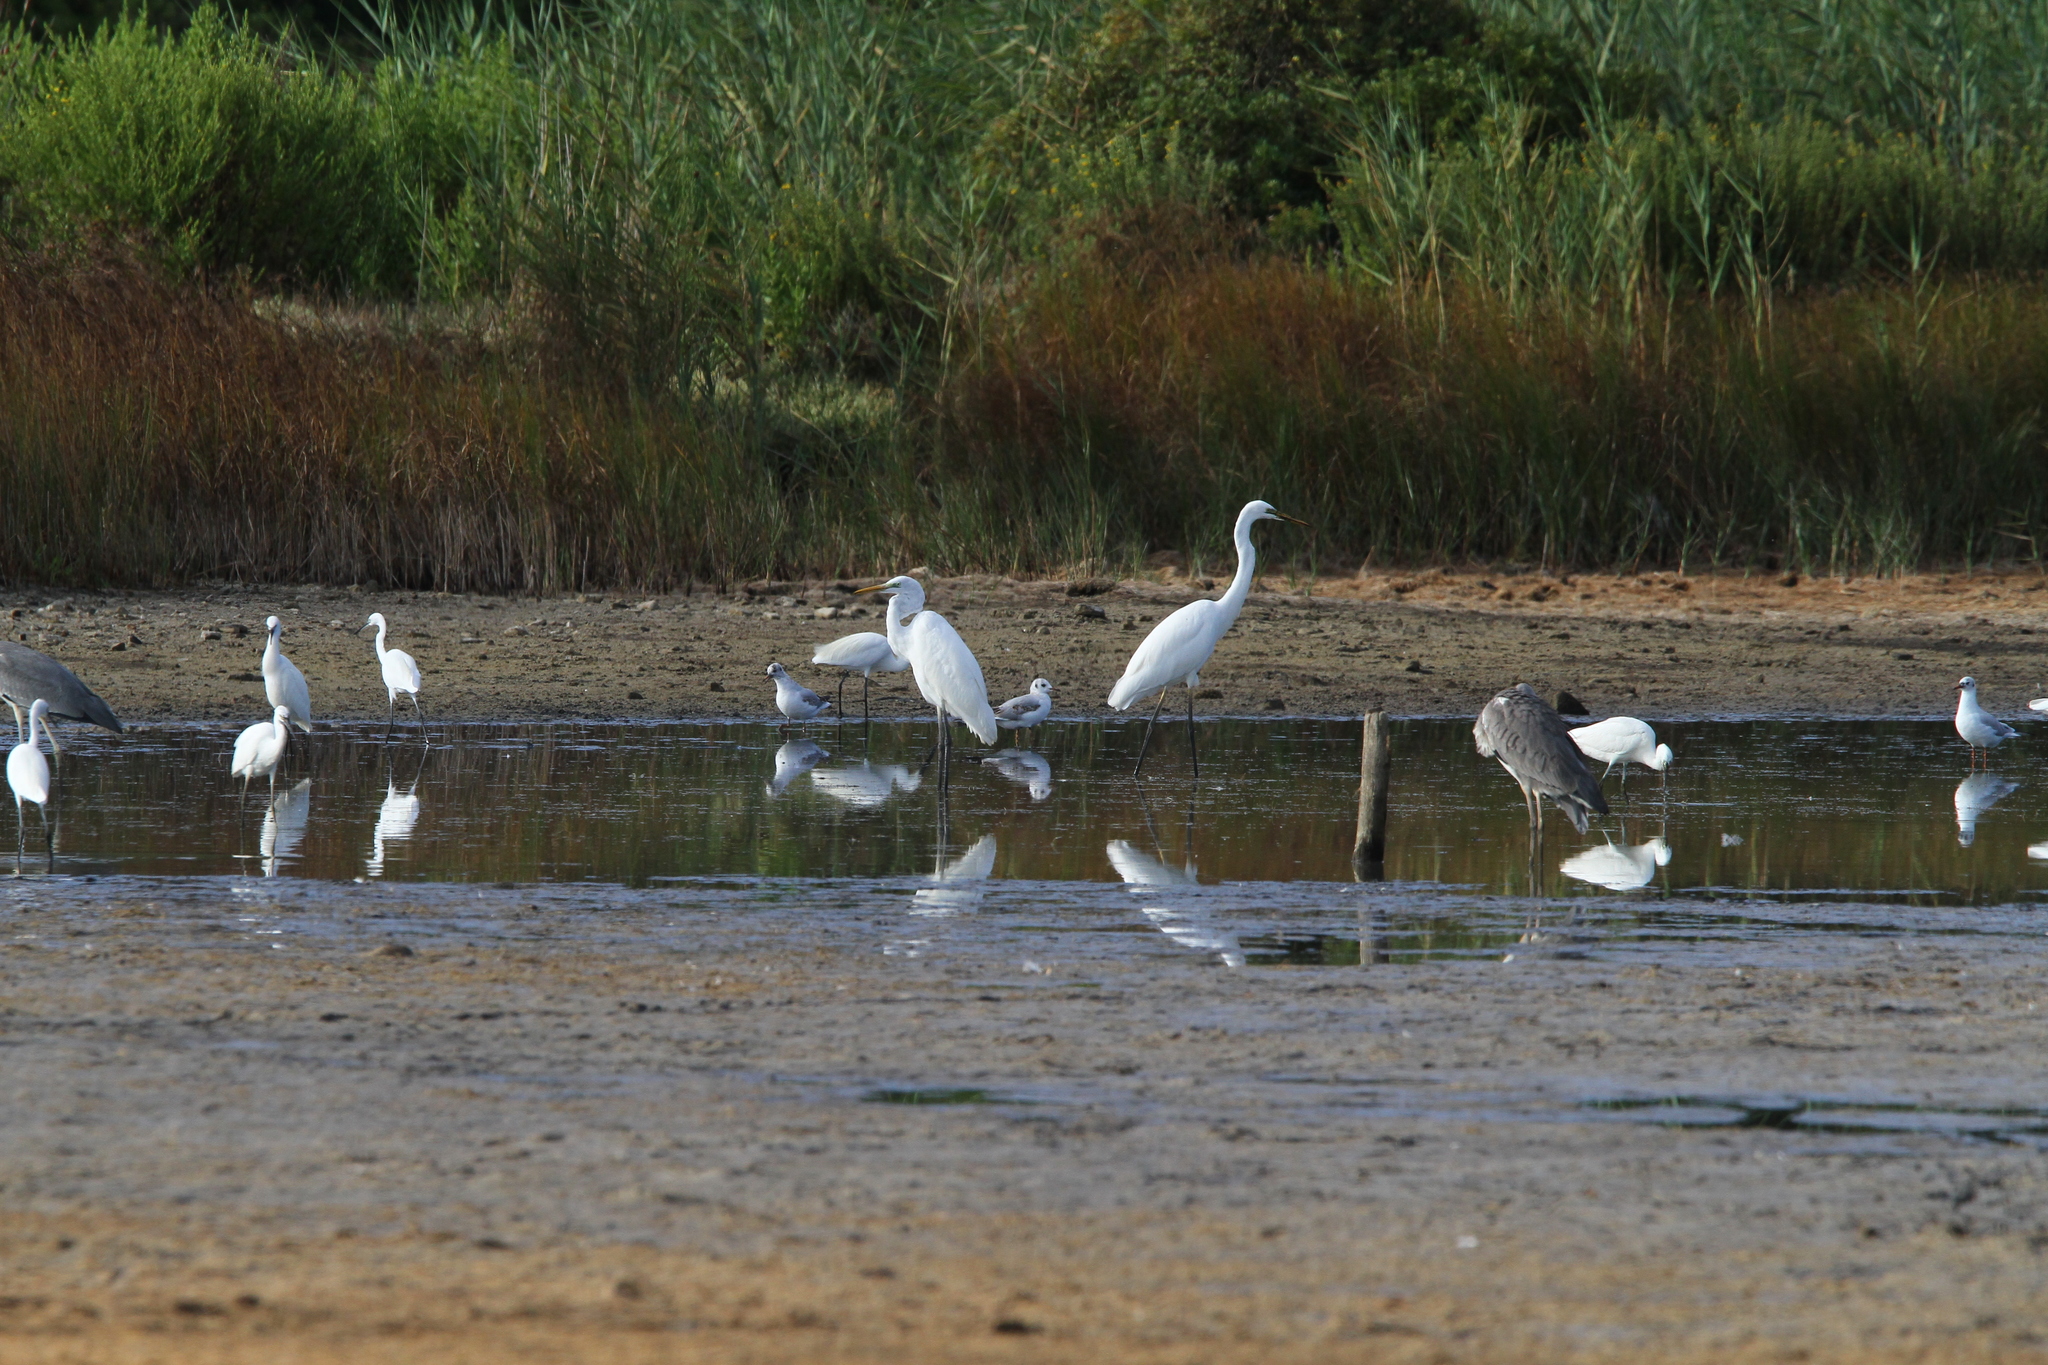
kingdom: Animalia
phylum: Chordata
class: Aves
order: Pelecaniformes
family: Ardeidae
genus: Egretta
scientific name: Egretta garzetta
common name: Little egret
